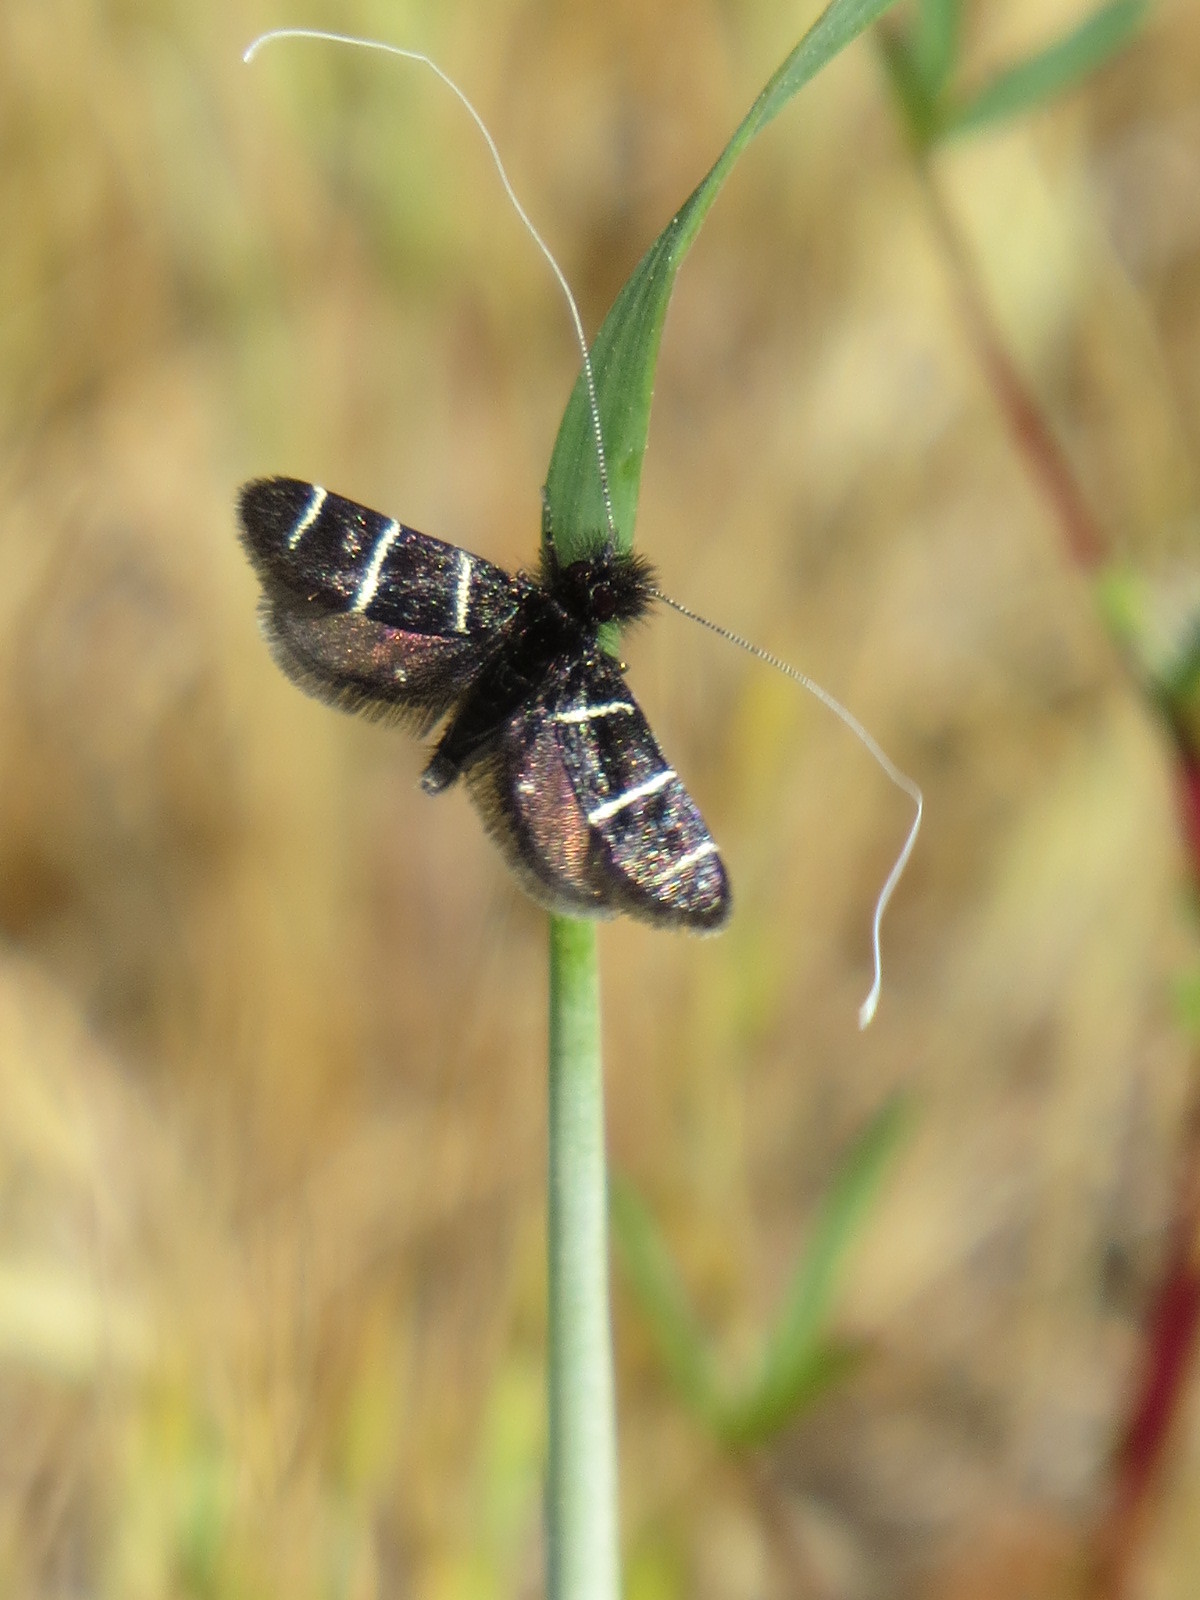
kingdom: Animalia
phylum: Arthropoda
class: Insecta
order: Lepidoptera
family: Adelidae
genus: Adela
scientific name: Adela trigrapha
